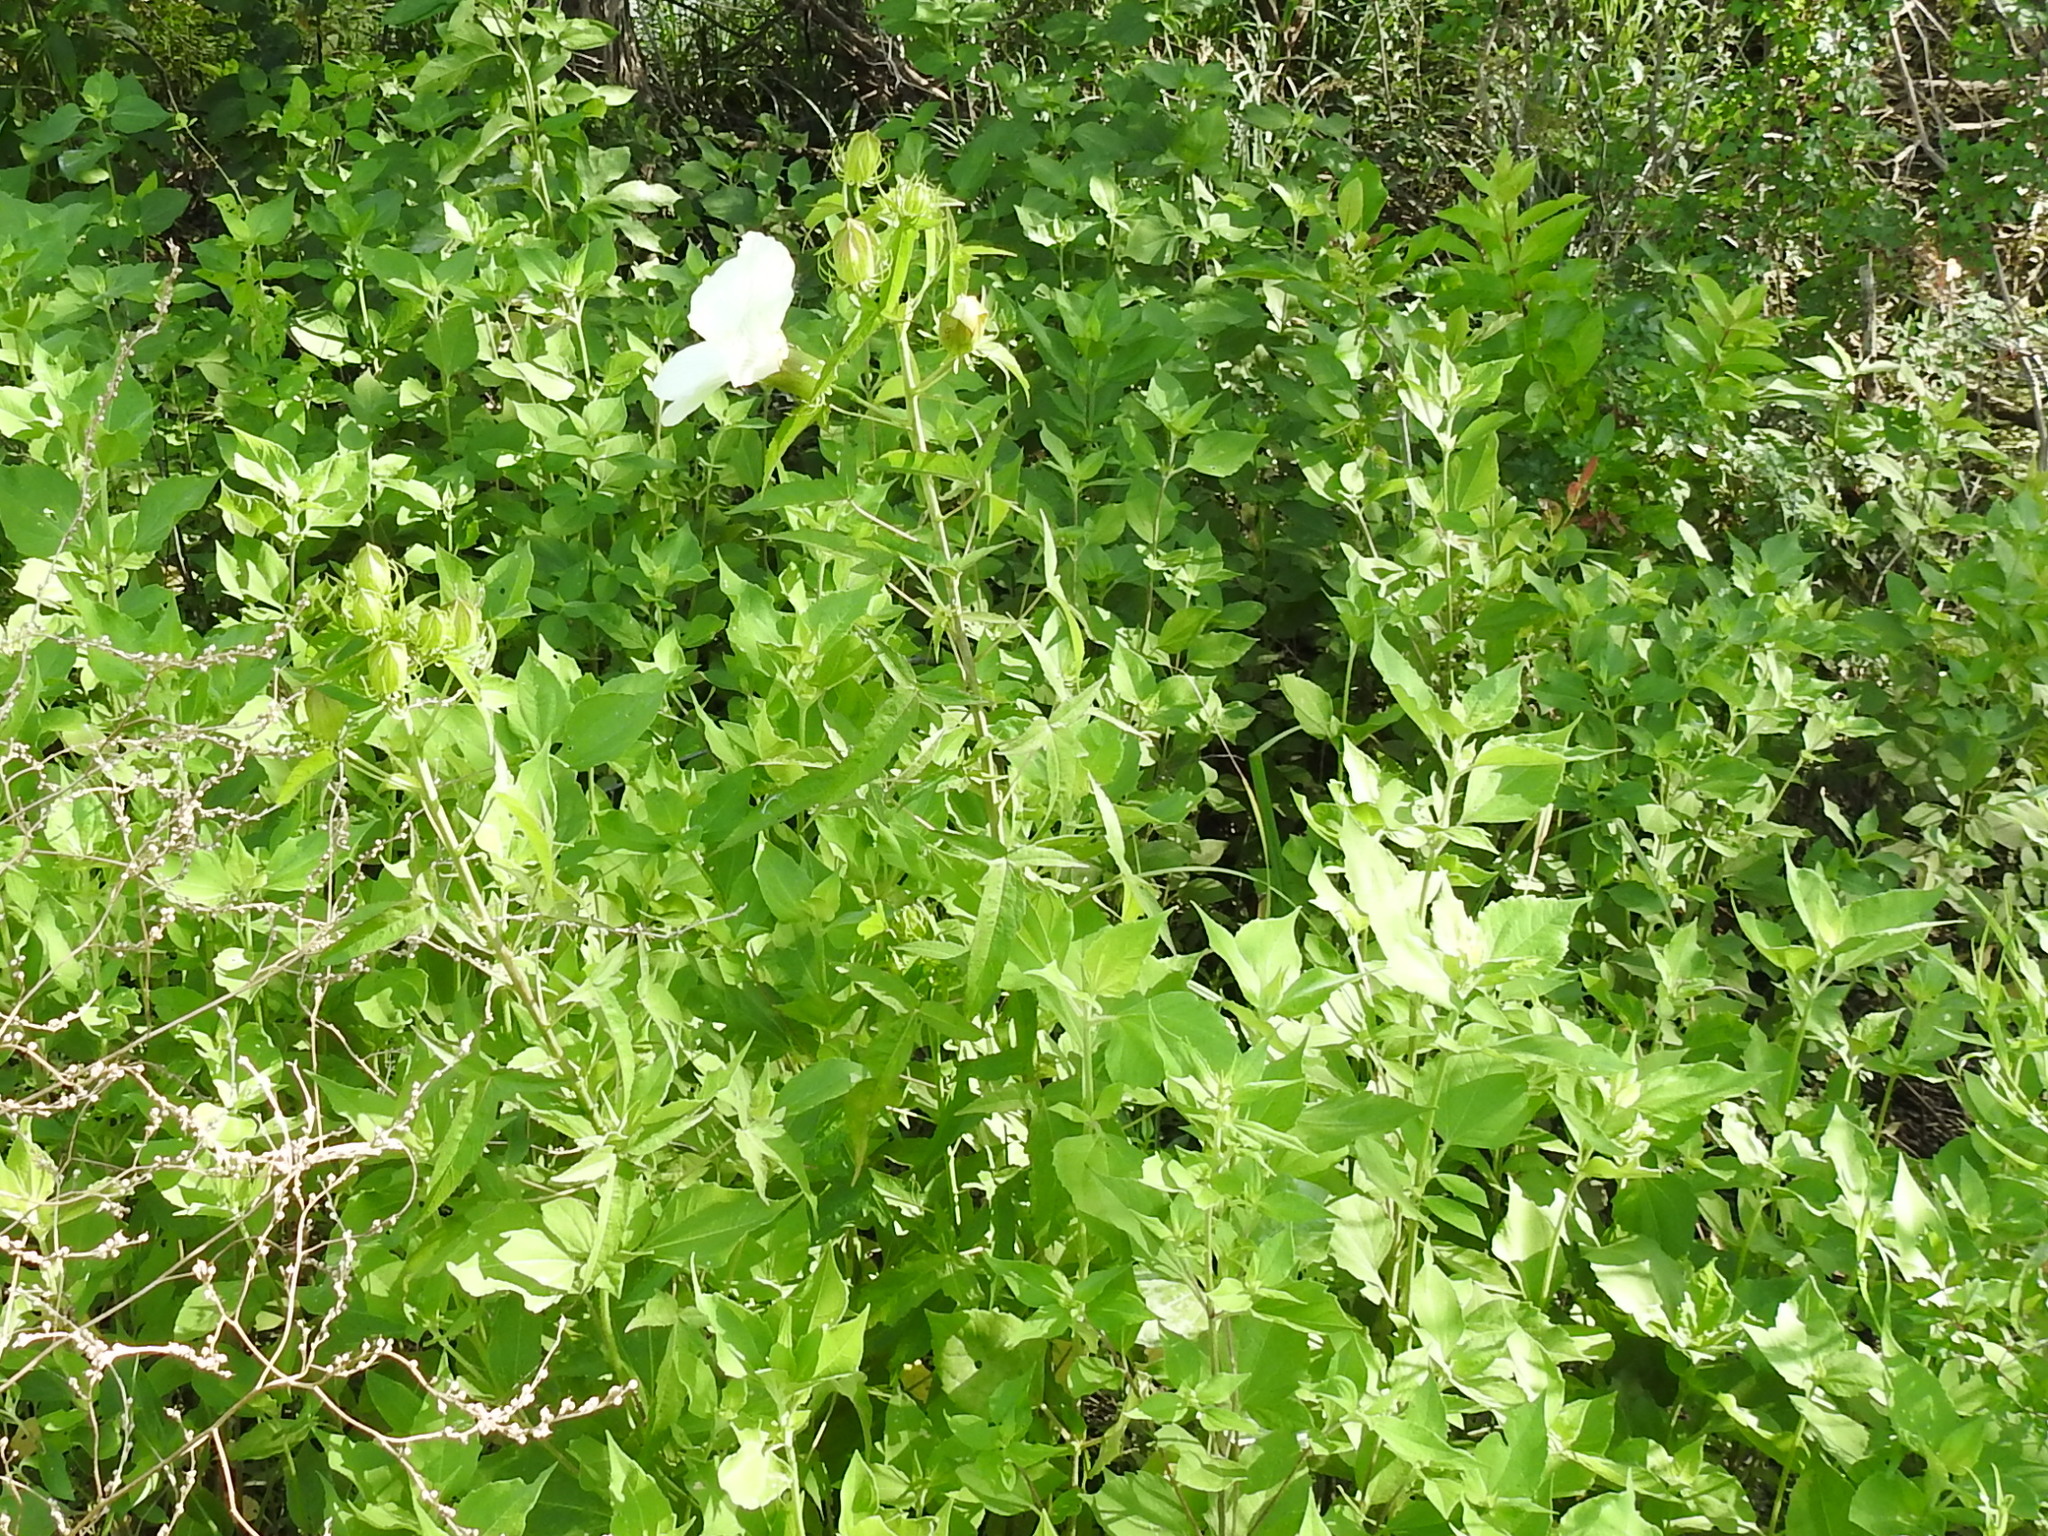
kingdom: Plantae
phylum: Tracheophyta
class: Magnoliopsida
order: Malvales
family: Malvaceae
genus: Hibiscus
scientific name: Hibiscus laevis
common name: Scarlet rose-mallow
